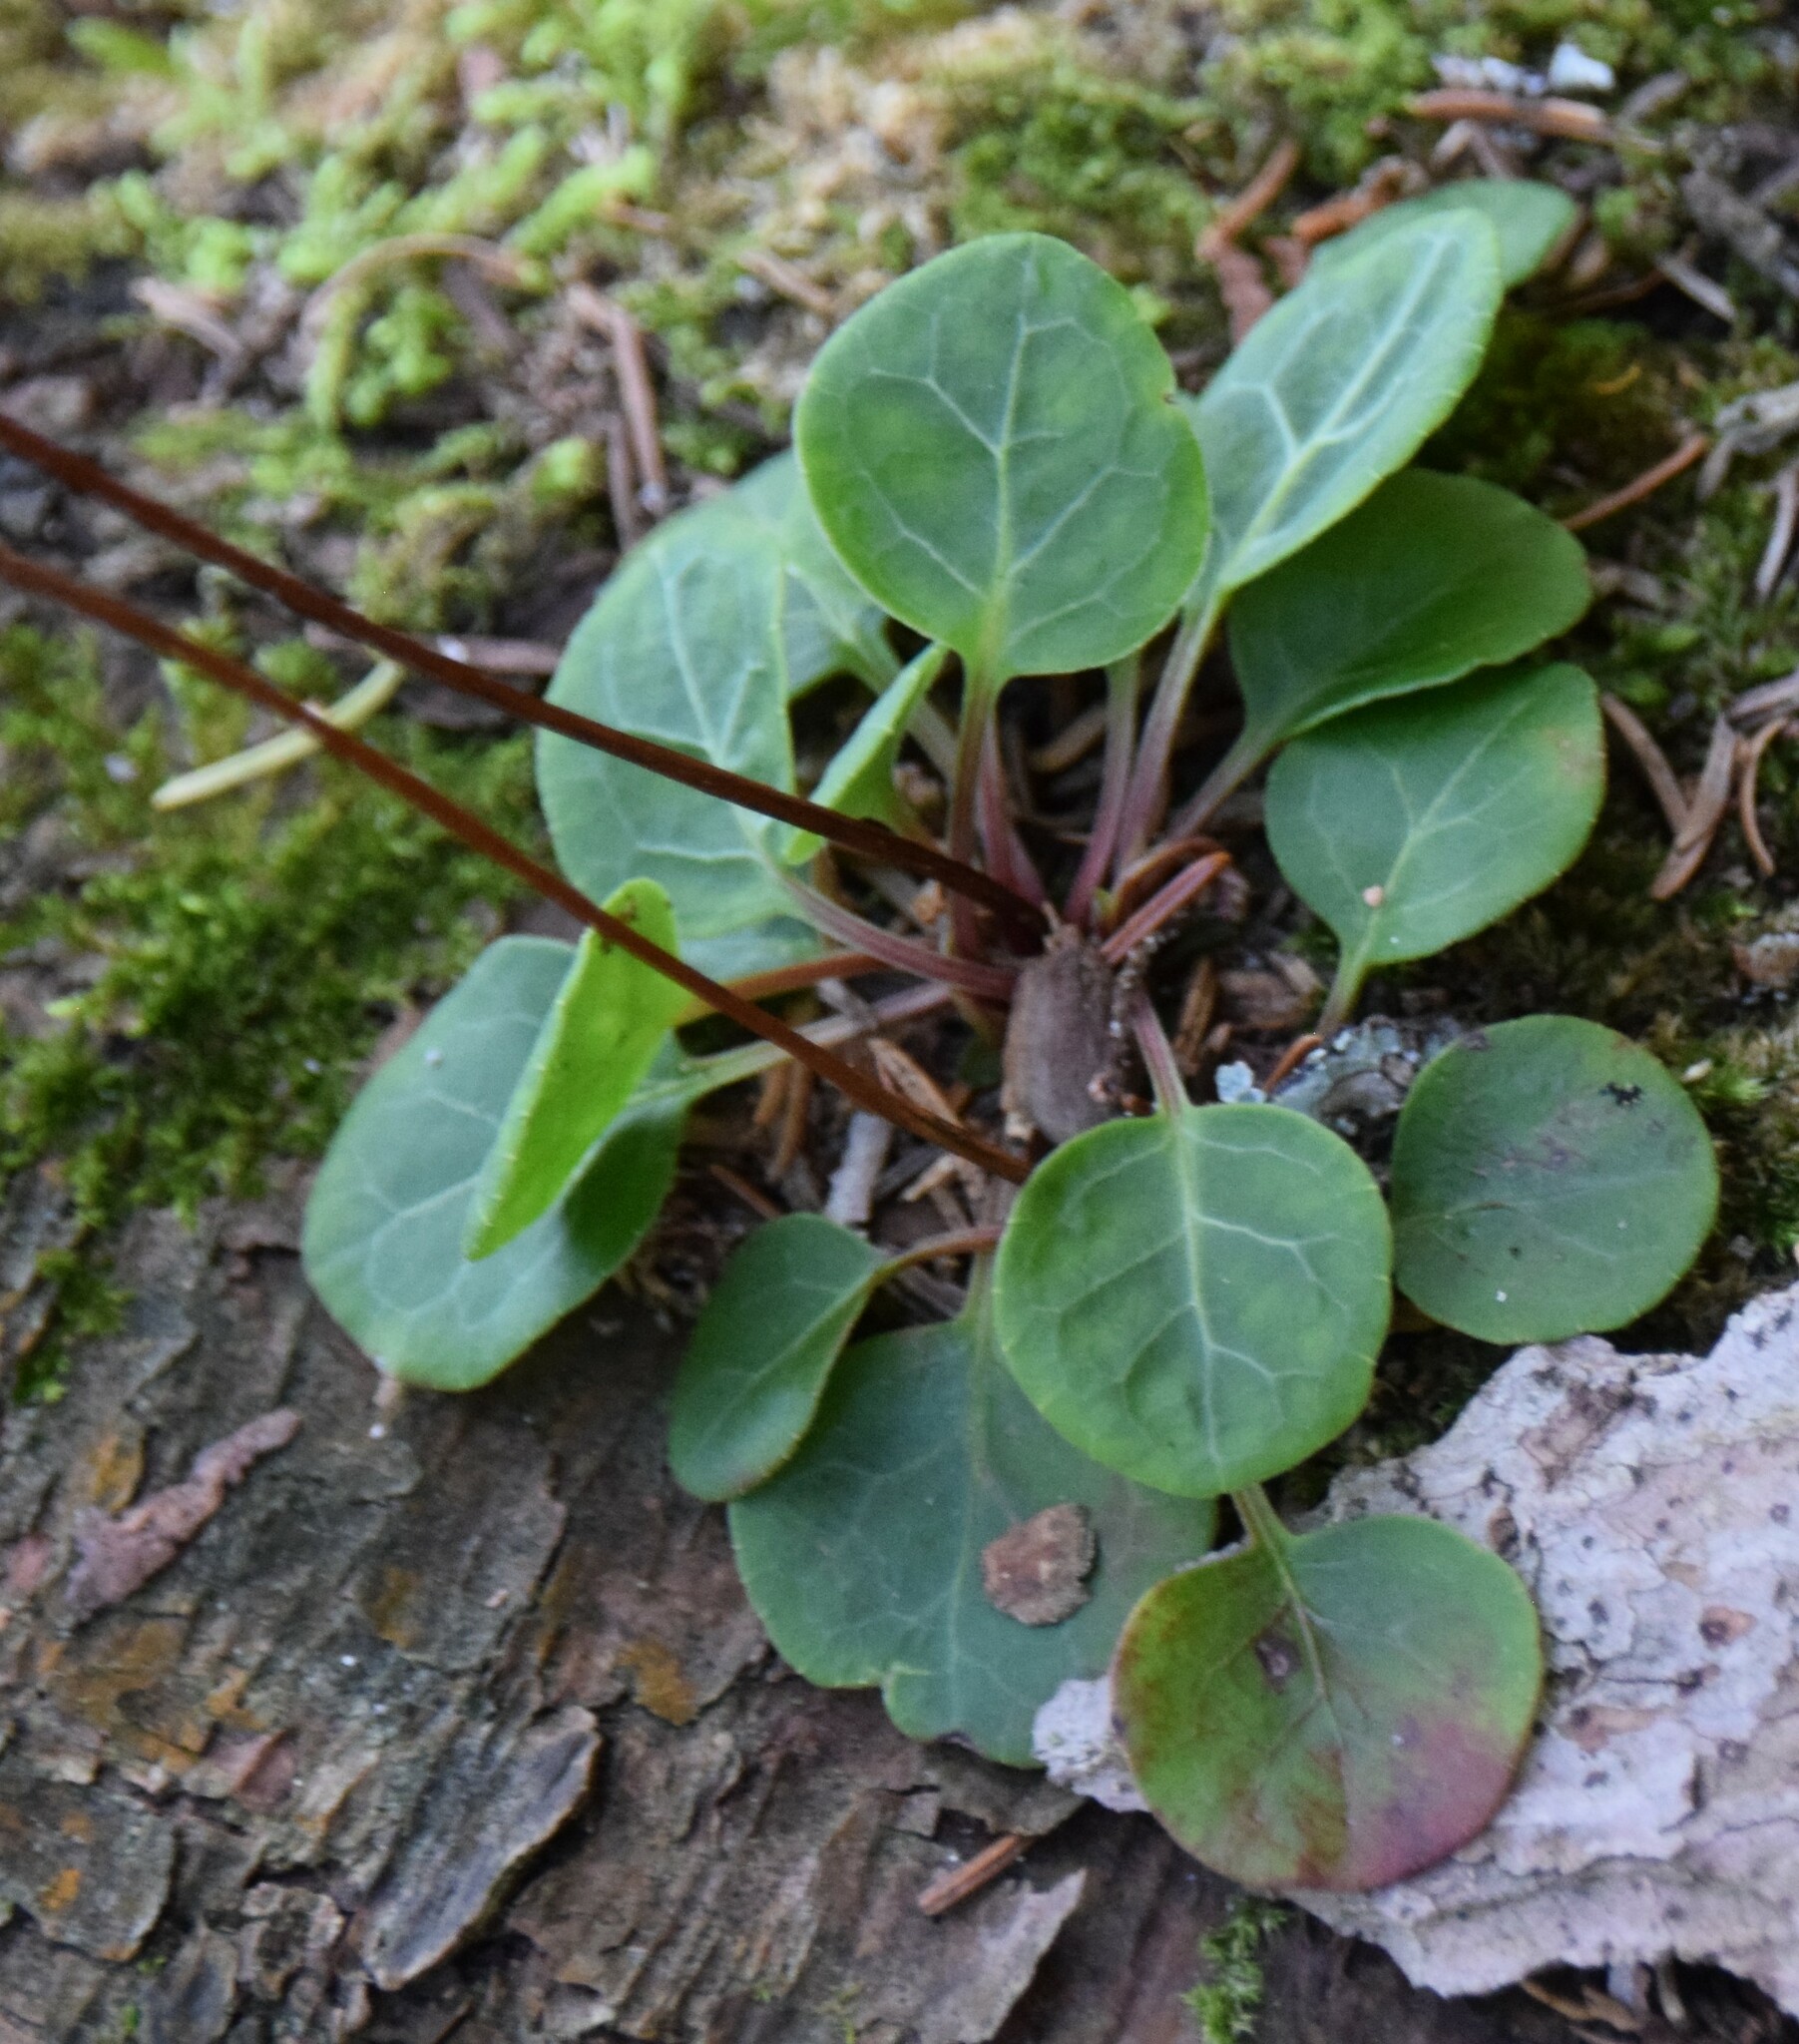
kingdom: Plantae
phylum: Tracheophyta
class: Magnoliopsida
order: Ericales
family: Ericaceae
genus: Pyrola
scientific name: Pyrola chlorantha
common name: Green wintergreen
